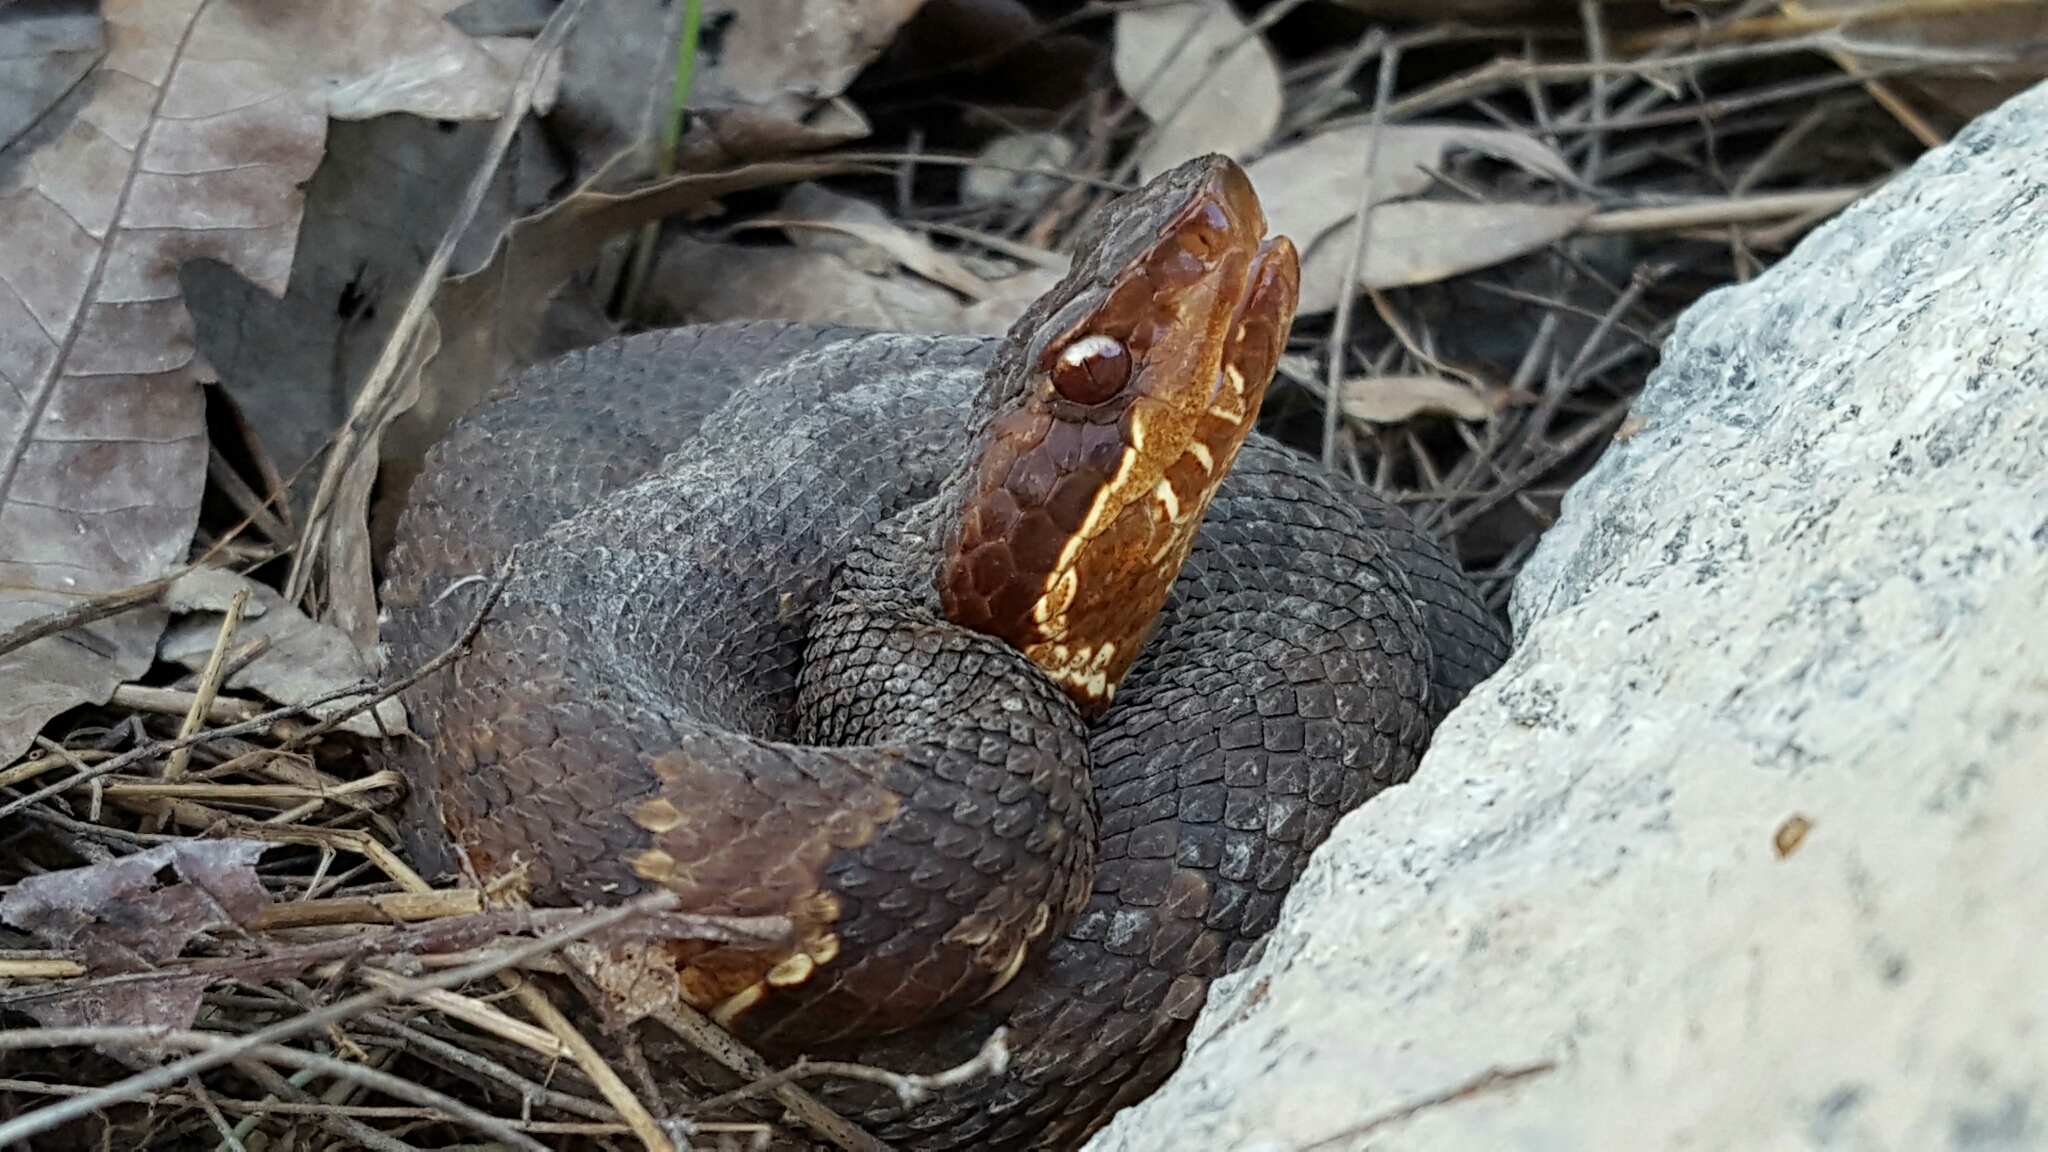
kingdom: Animalia
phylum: Chordata
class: Squamata
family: Viperidae
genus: Agkistrodon
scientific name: Agkistrodon piscivorus
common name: Cottonmouth
